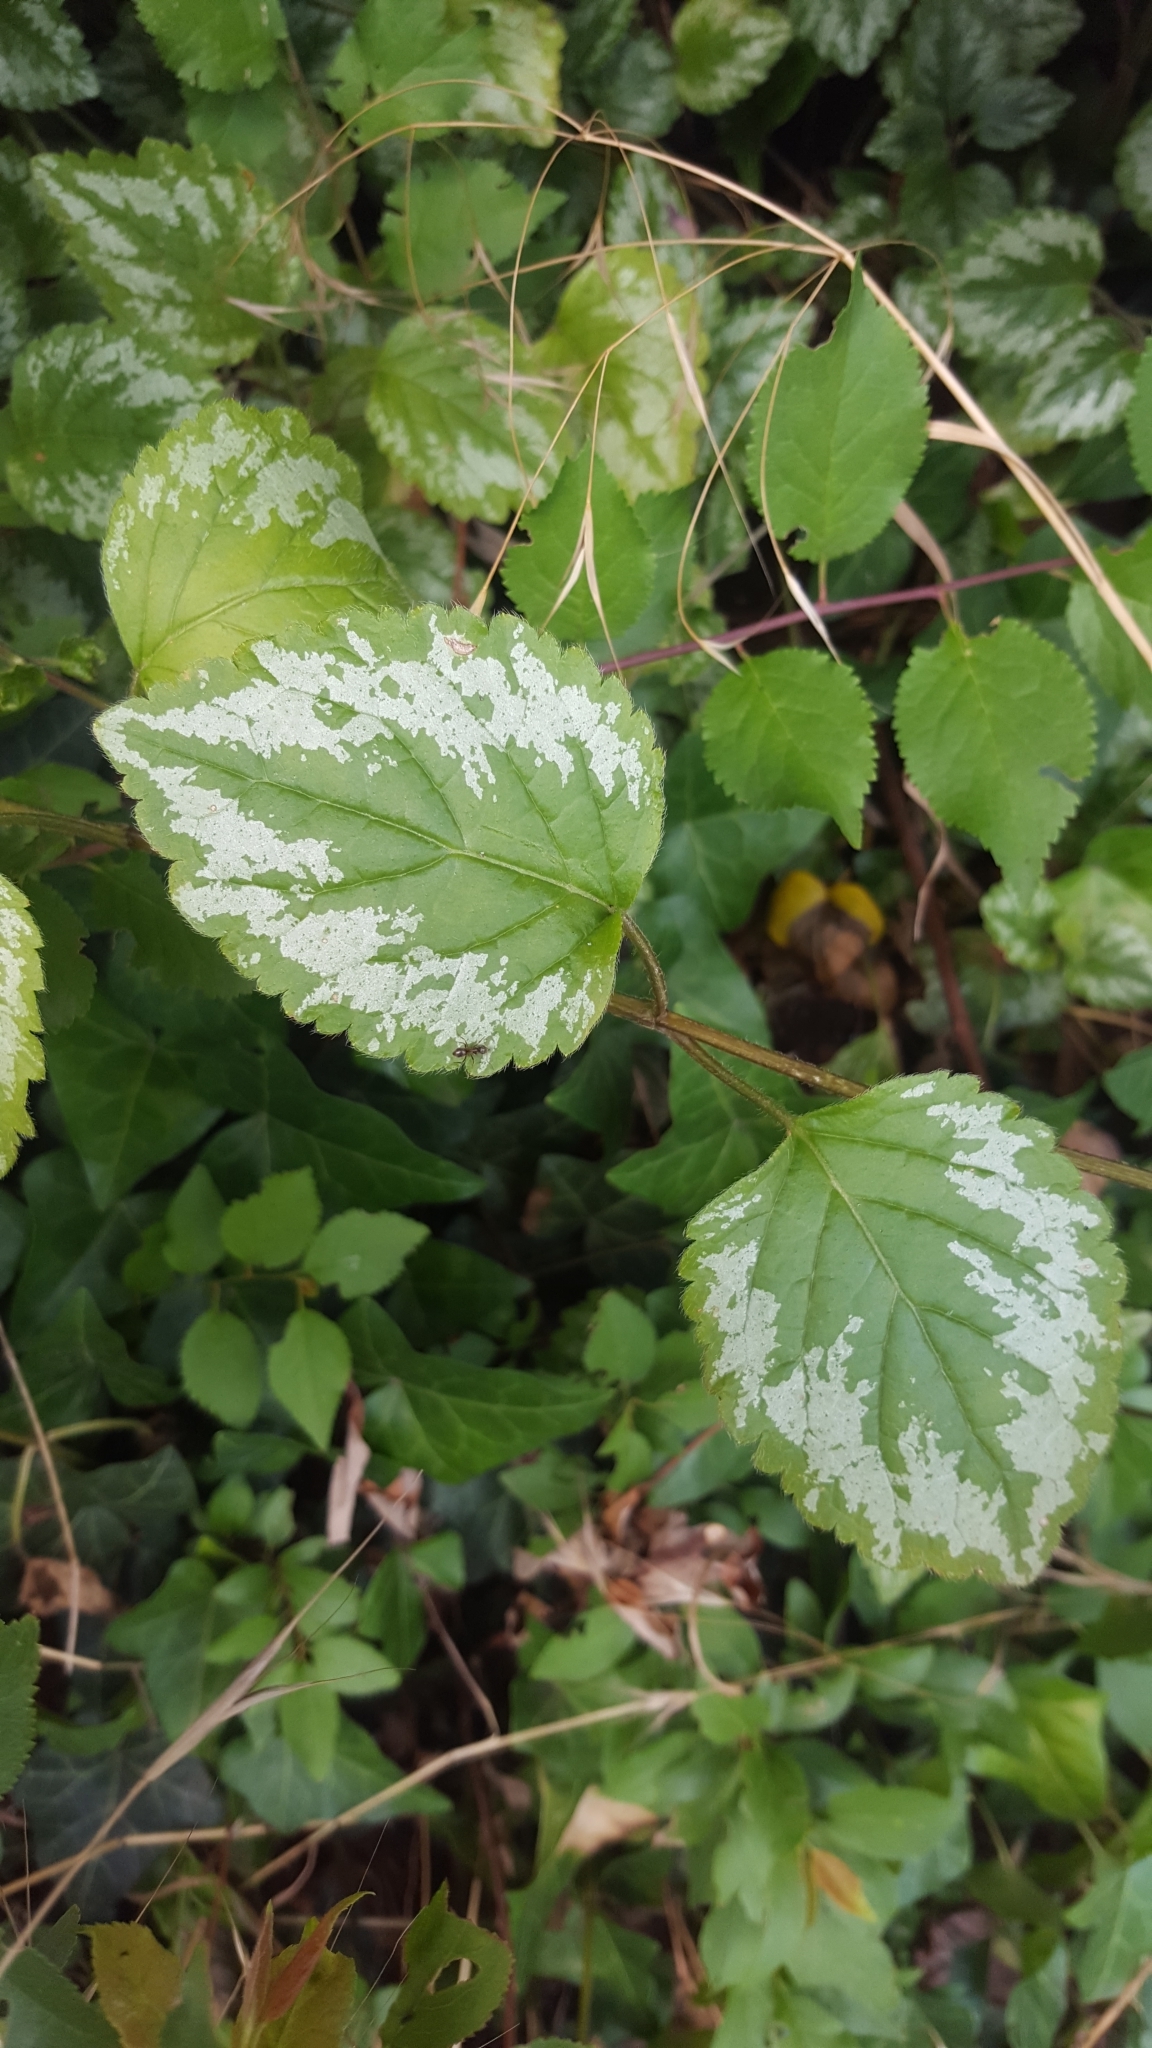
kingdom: Plantae
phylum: Tracheophyta
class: Magnoliopsida
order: Lamiales
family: Lamiaceae
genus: Lamium
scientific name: Lamium galeobdolon
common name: Yellow archangel
